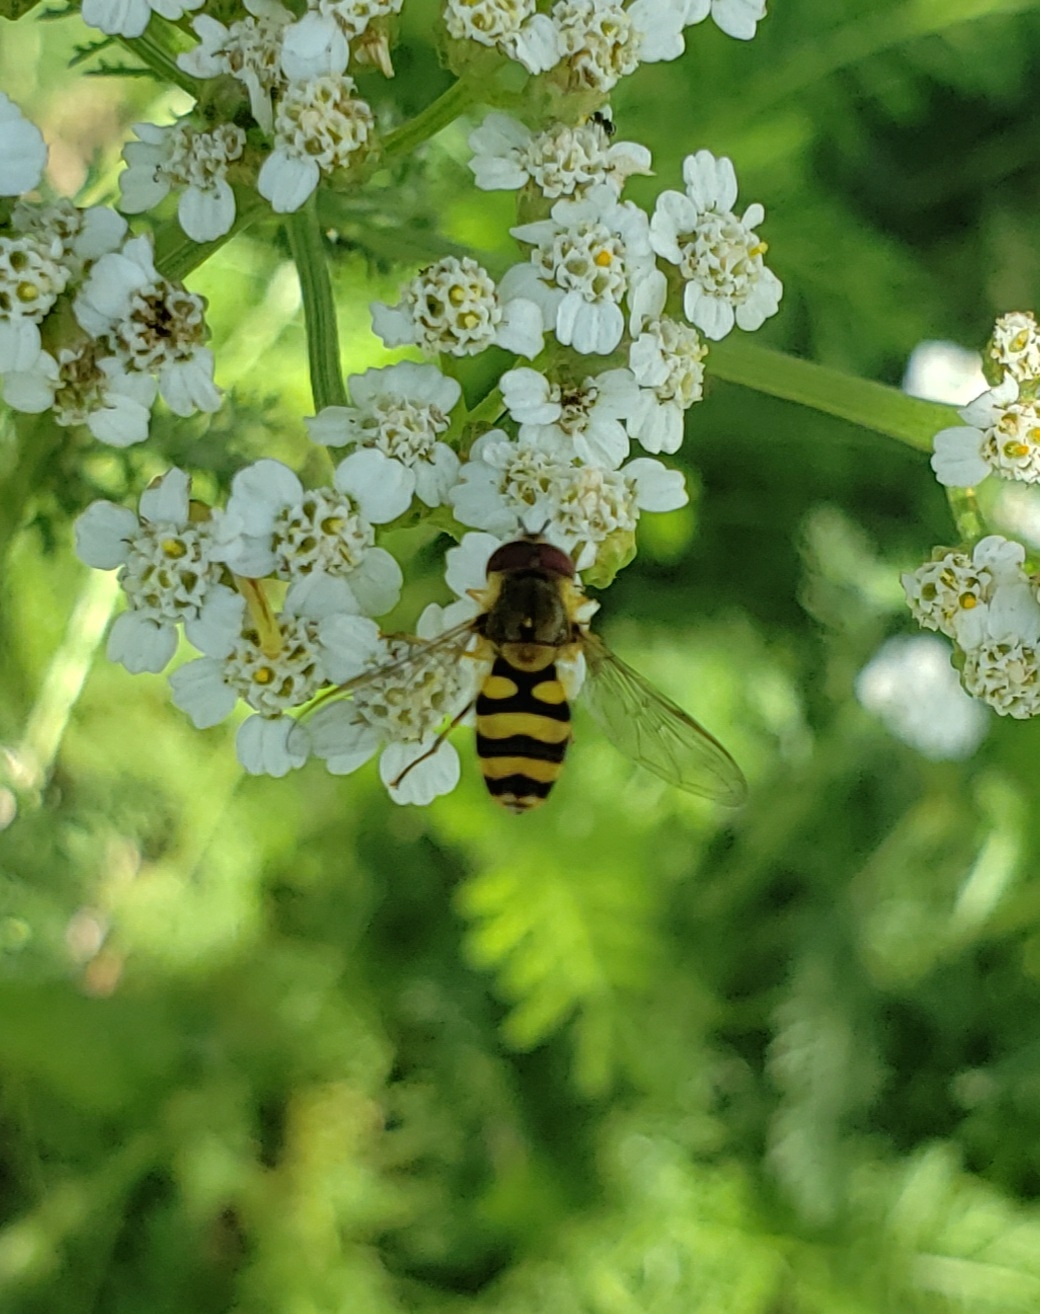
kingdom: Animalia
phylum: Arthropoda
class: Insecta
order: Diptera
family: Syrphidae
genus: Syrphus
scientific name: Syrphus
